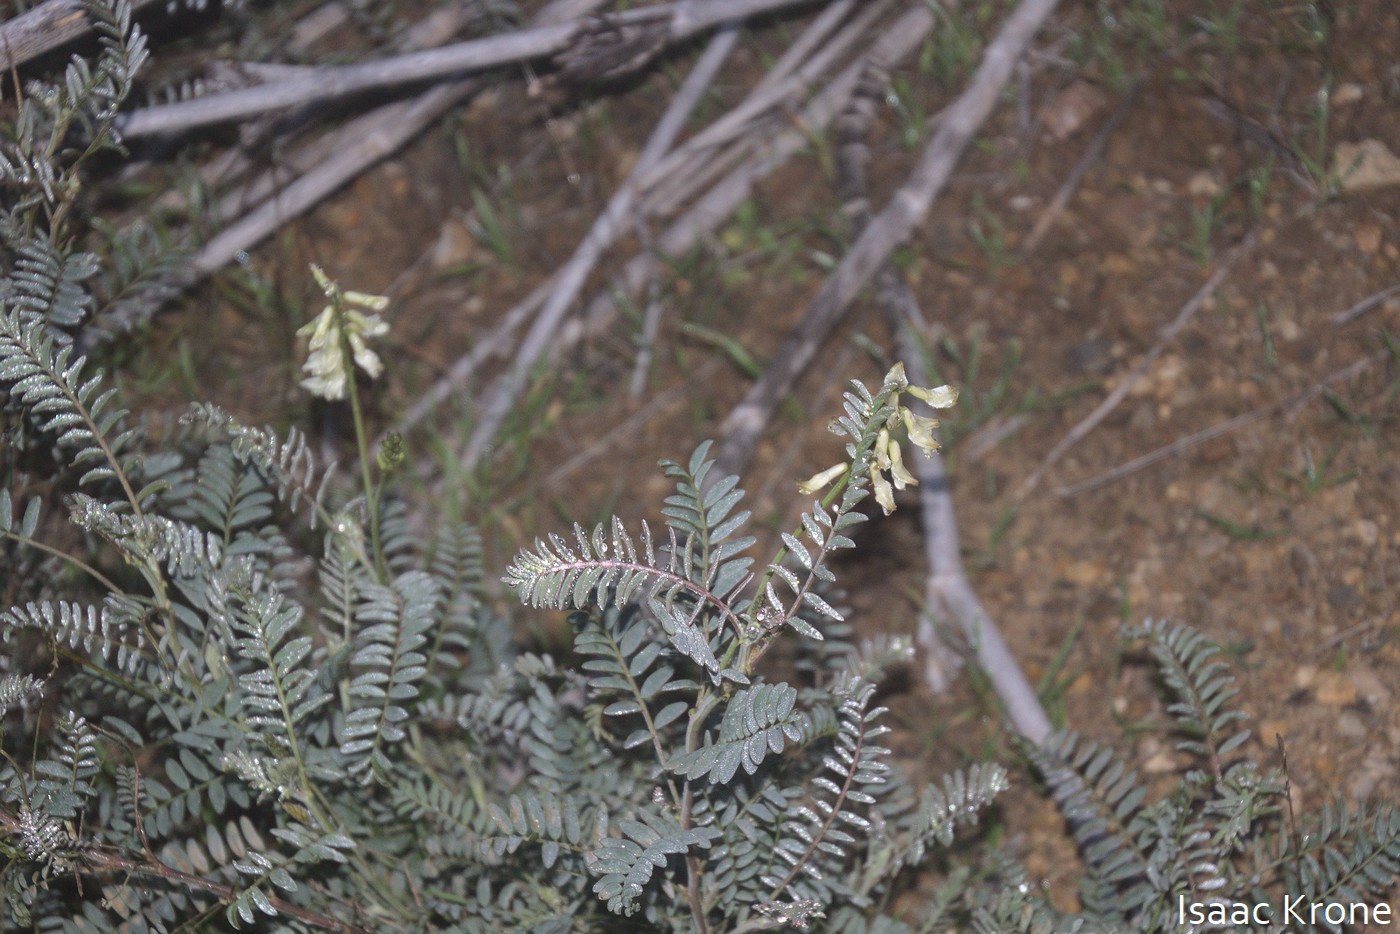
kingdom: Plantae
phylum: Tracheophyta
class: Magnoliopsida
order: Fabales
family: Fabaceae
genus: Astragalus
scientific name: Astragalus trichopodus
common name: Santa barbara milk-vetch
